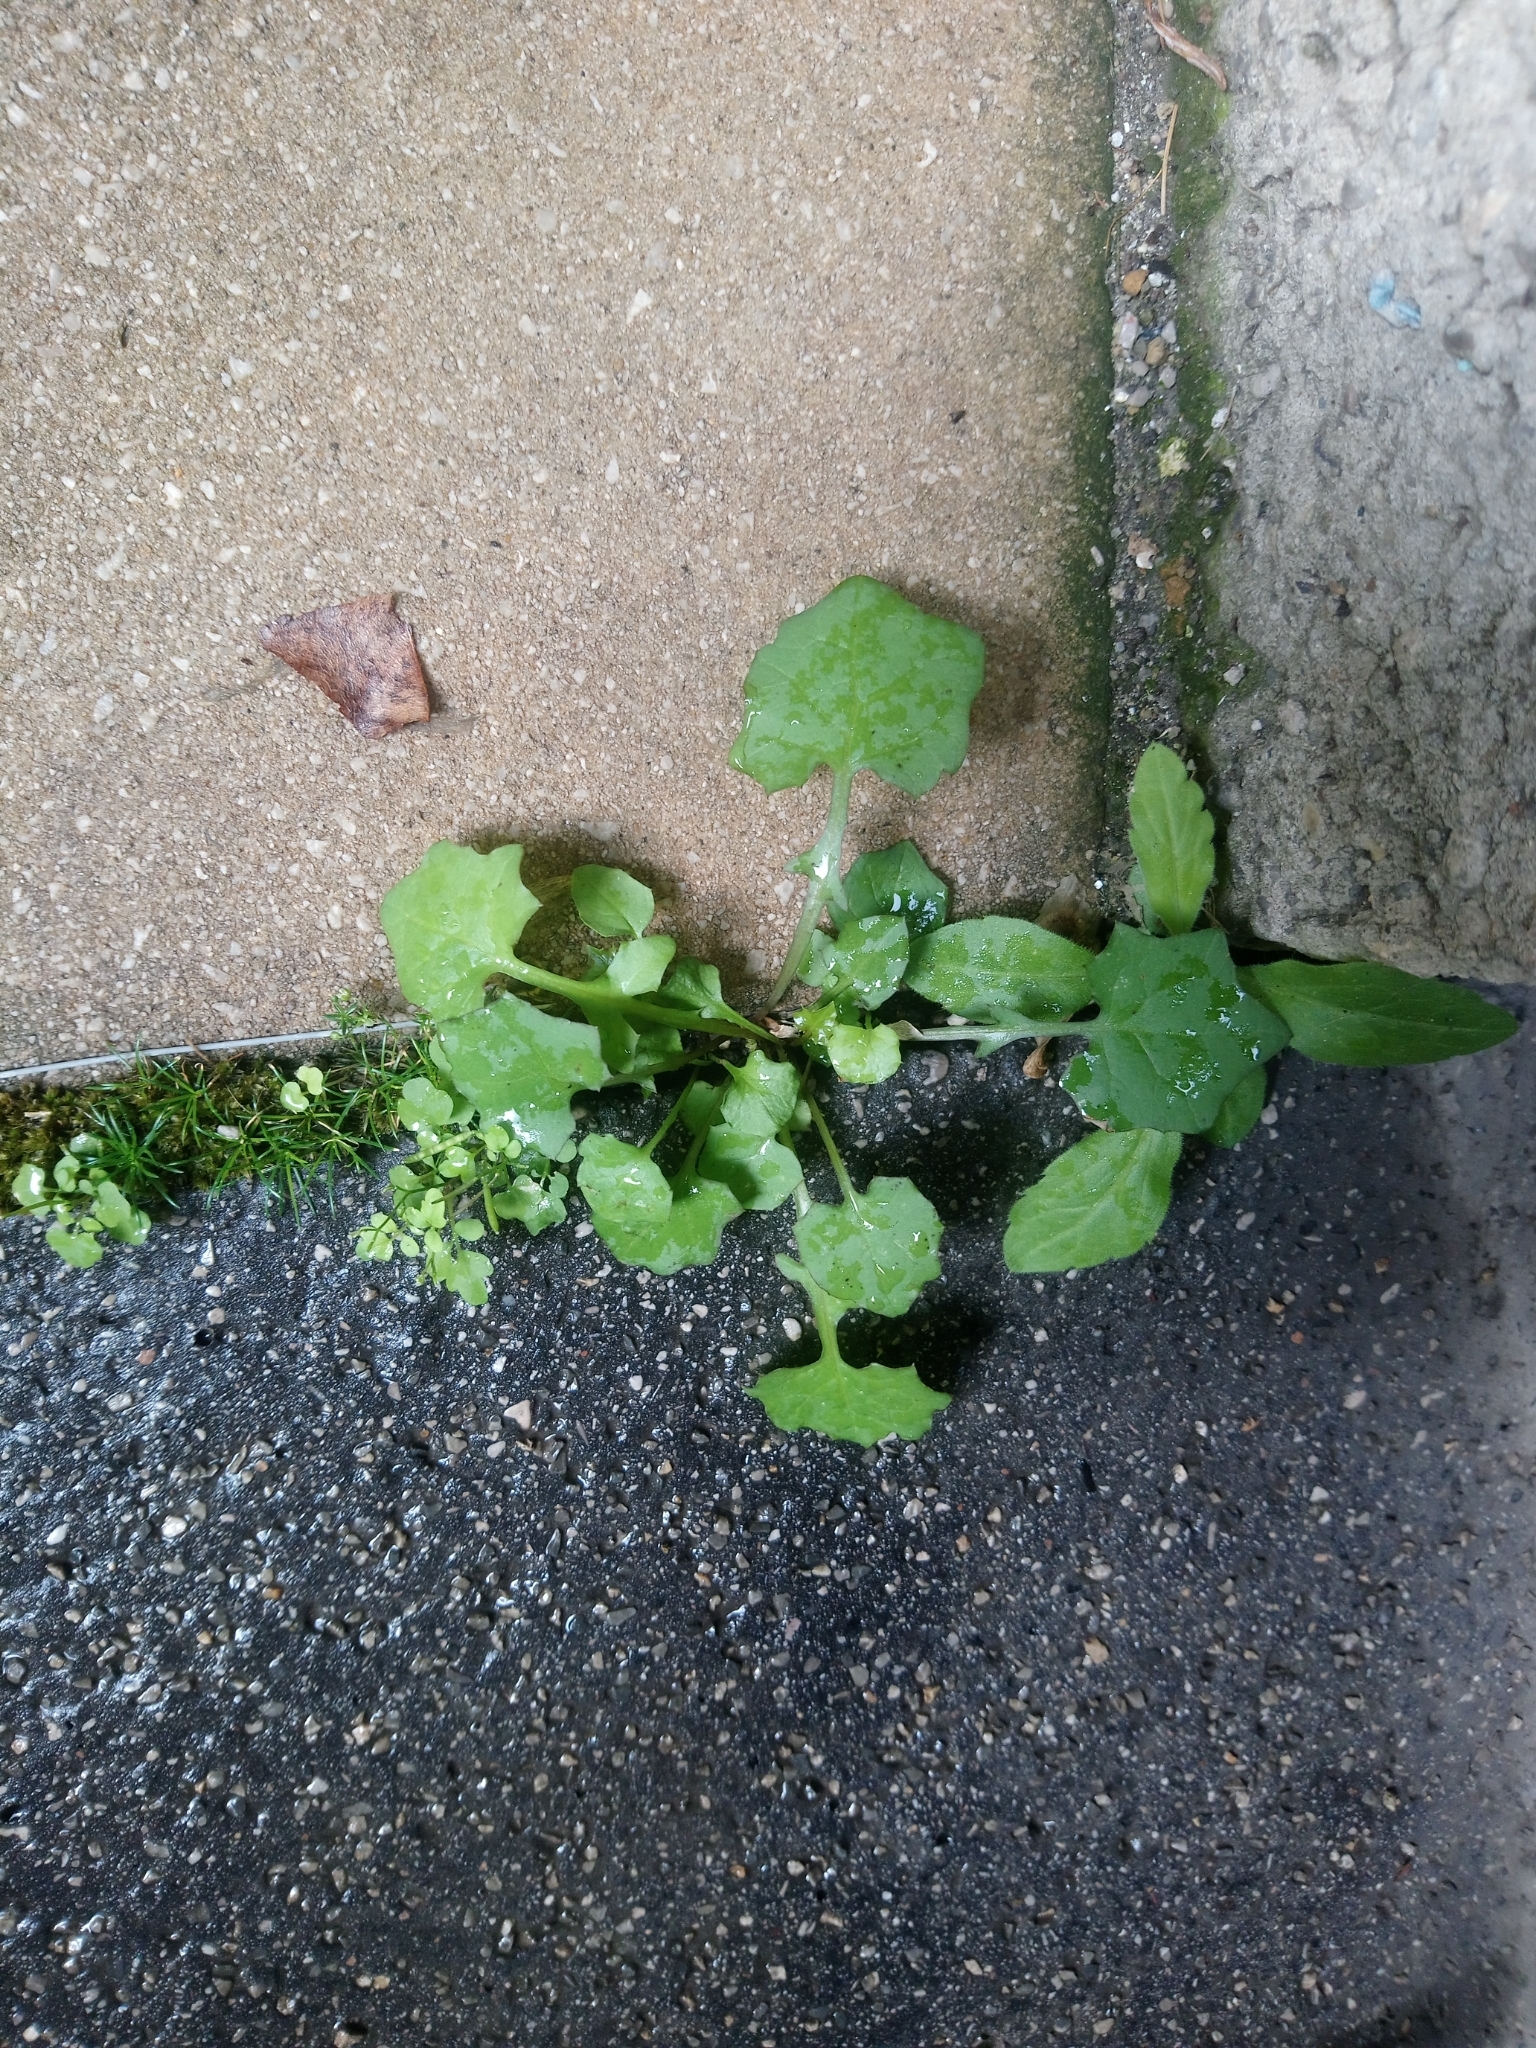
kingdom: Plantae
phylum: Tracheophyta
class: Magnoliopsida
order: Asterales
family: Asteraceae
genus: Mycelis
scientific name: Mycelis muralis
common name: Wall lettuce
